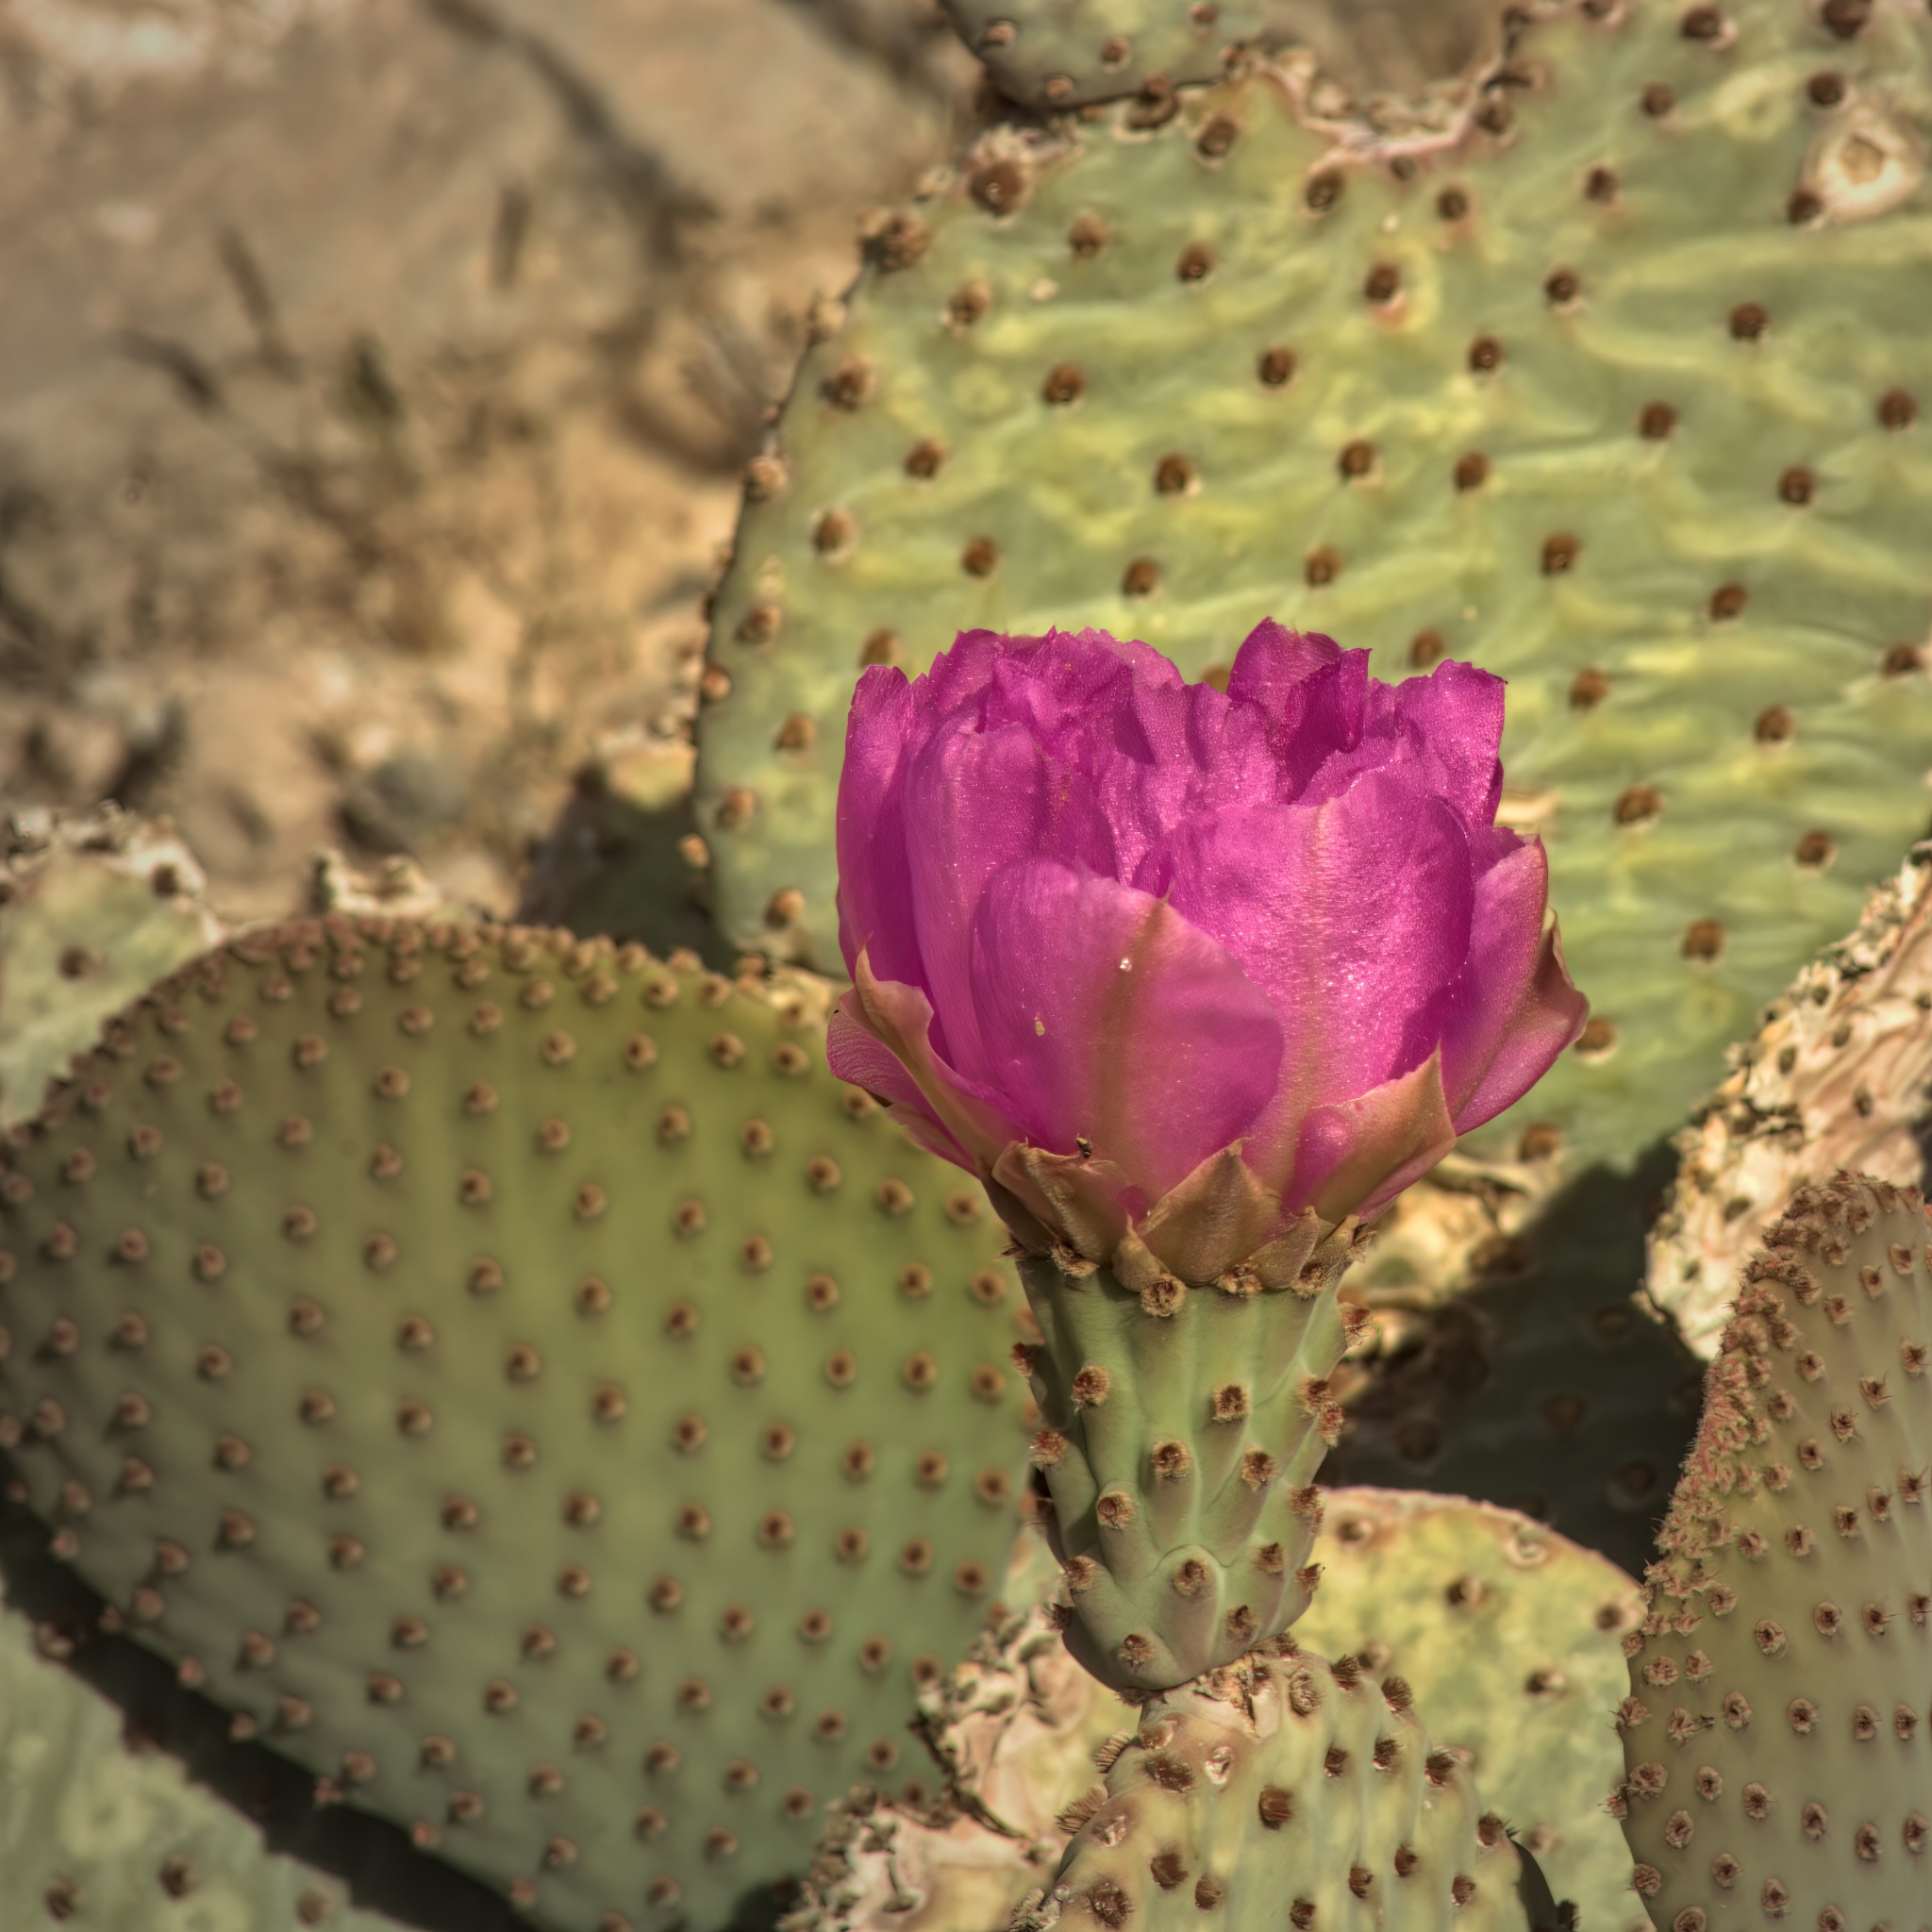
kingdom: Plantae
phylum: Tracheophyta
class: Magnoliopsida
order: Caryophyllales
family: Cactaceae
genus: Opuntia
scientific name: Opuntia basilaris
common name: Beavertail prickly-pear
